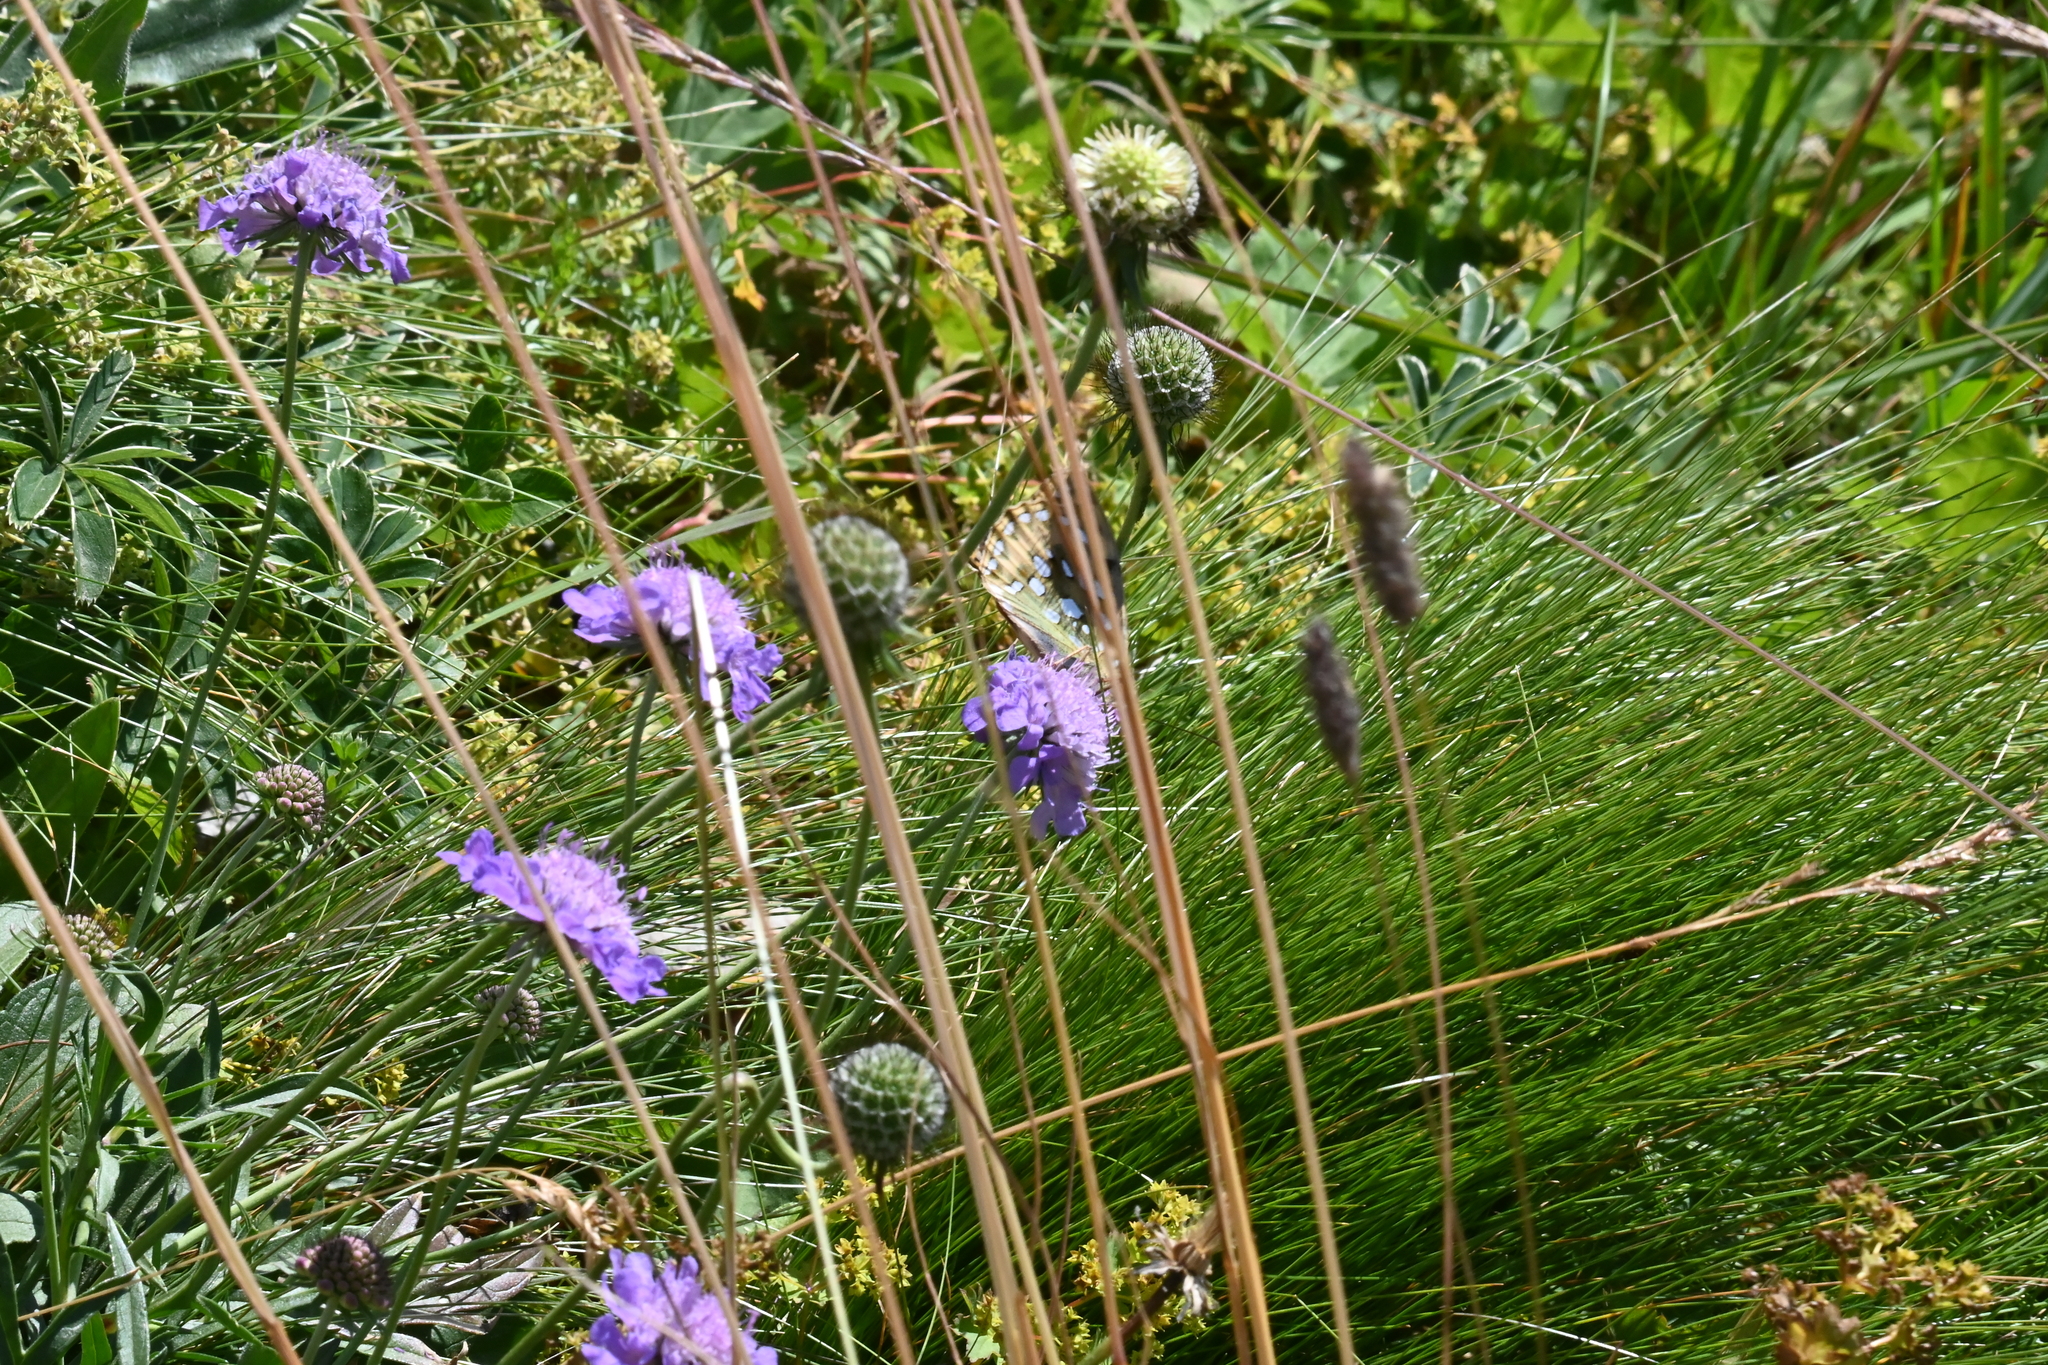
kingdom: Animalia
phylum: Arthropoda
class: Insecta
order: Lepidoptera
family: Nymphalidae
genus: Speyeria
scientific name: Speyeria aglaja
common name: Dark green fritillary
